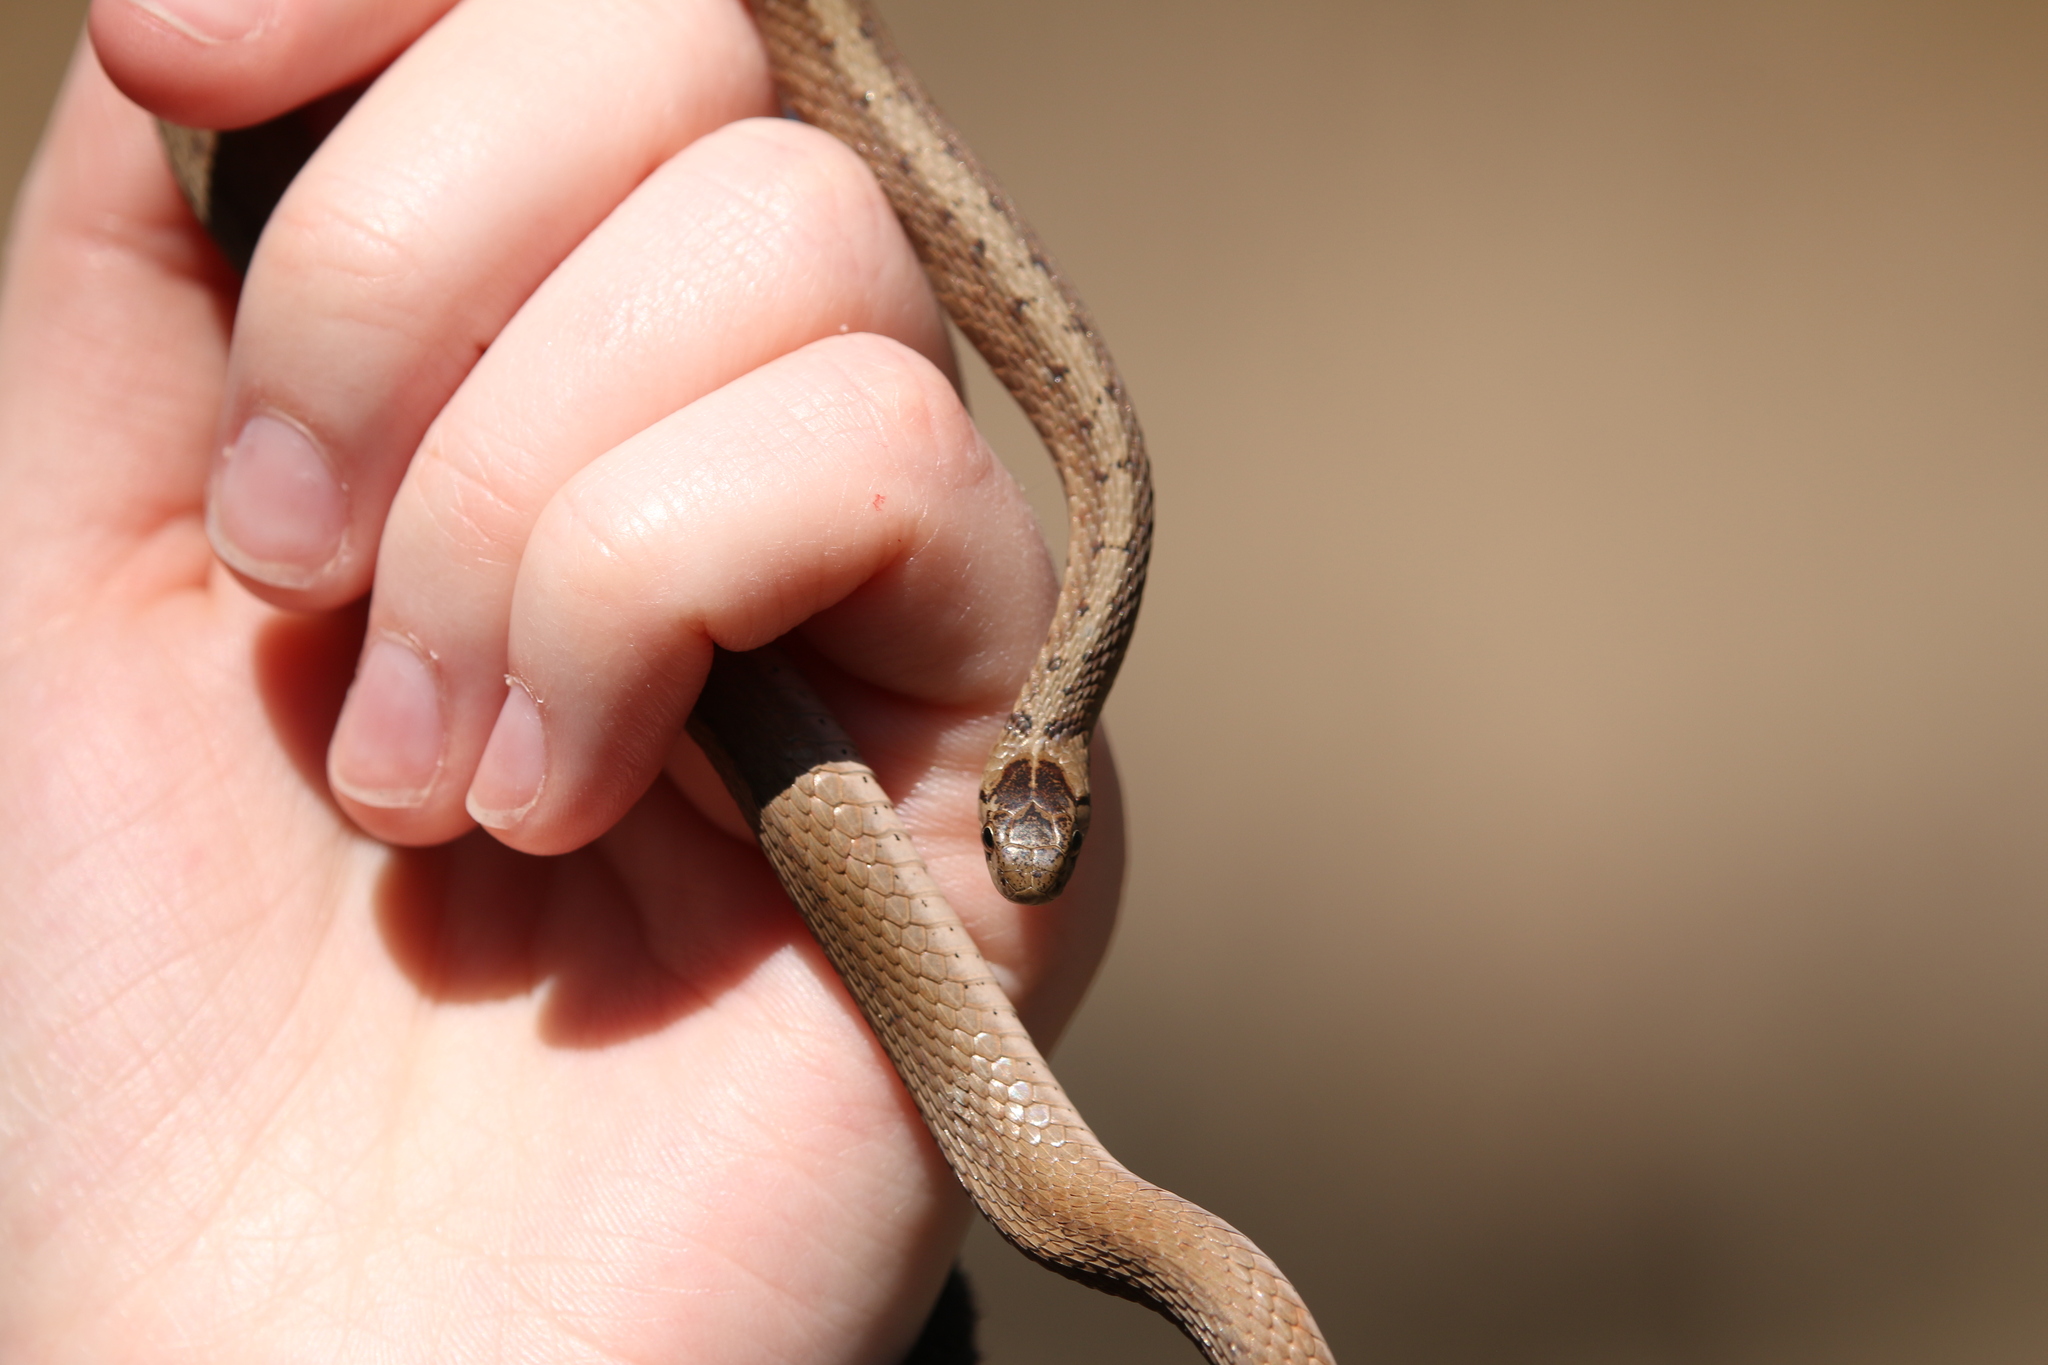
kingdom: Animalia
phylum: Chordata
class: Squamata
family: Colubridae
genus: Storeria
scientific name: Storeria dekayi
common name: (dekay’s) brown snake
